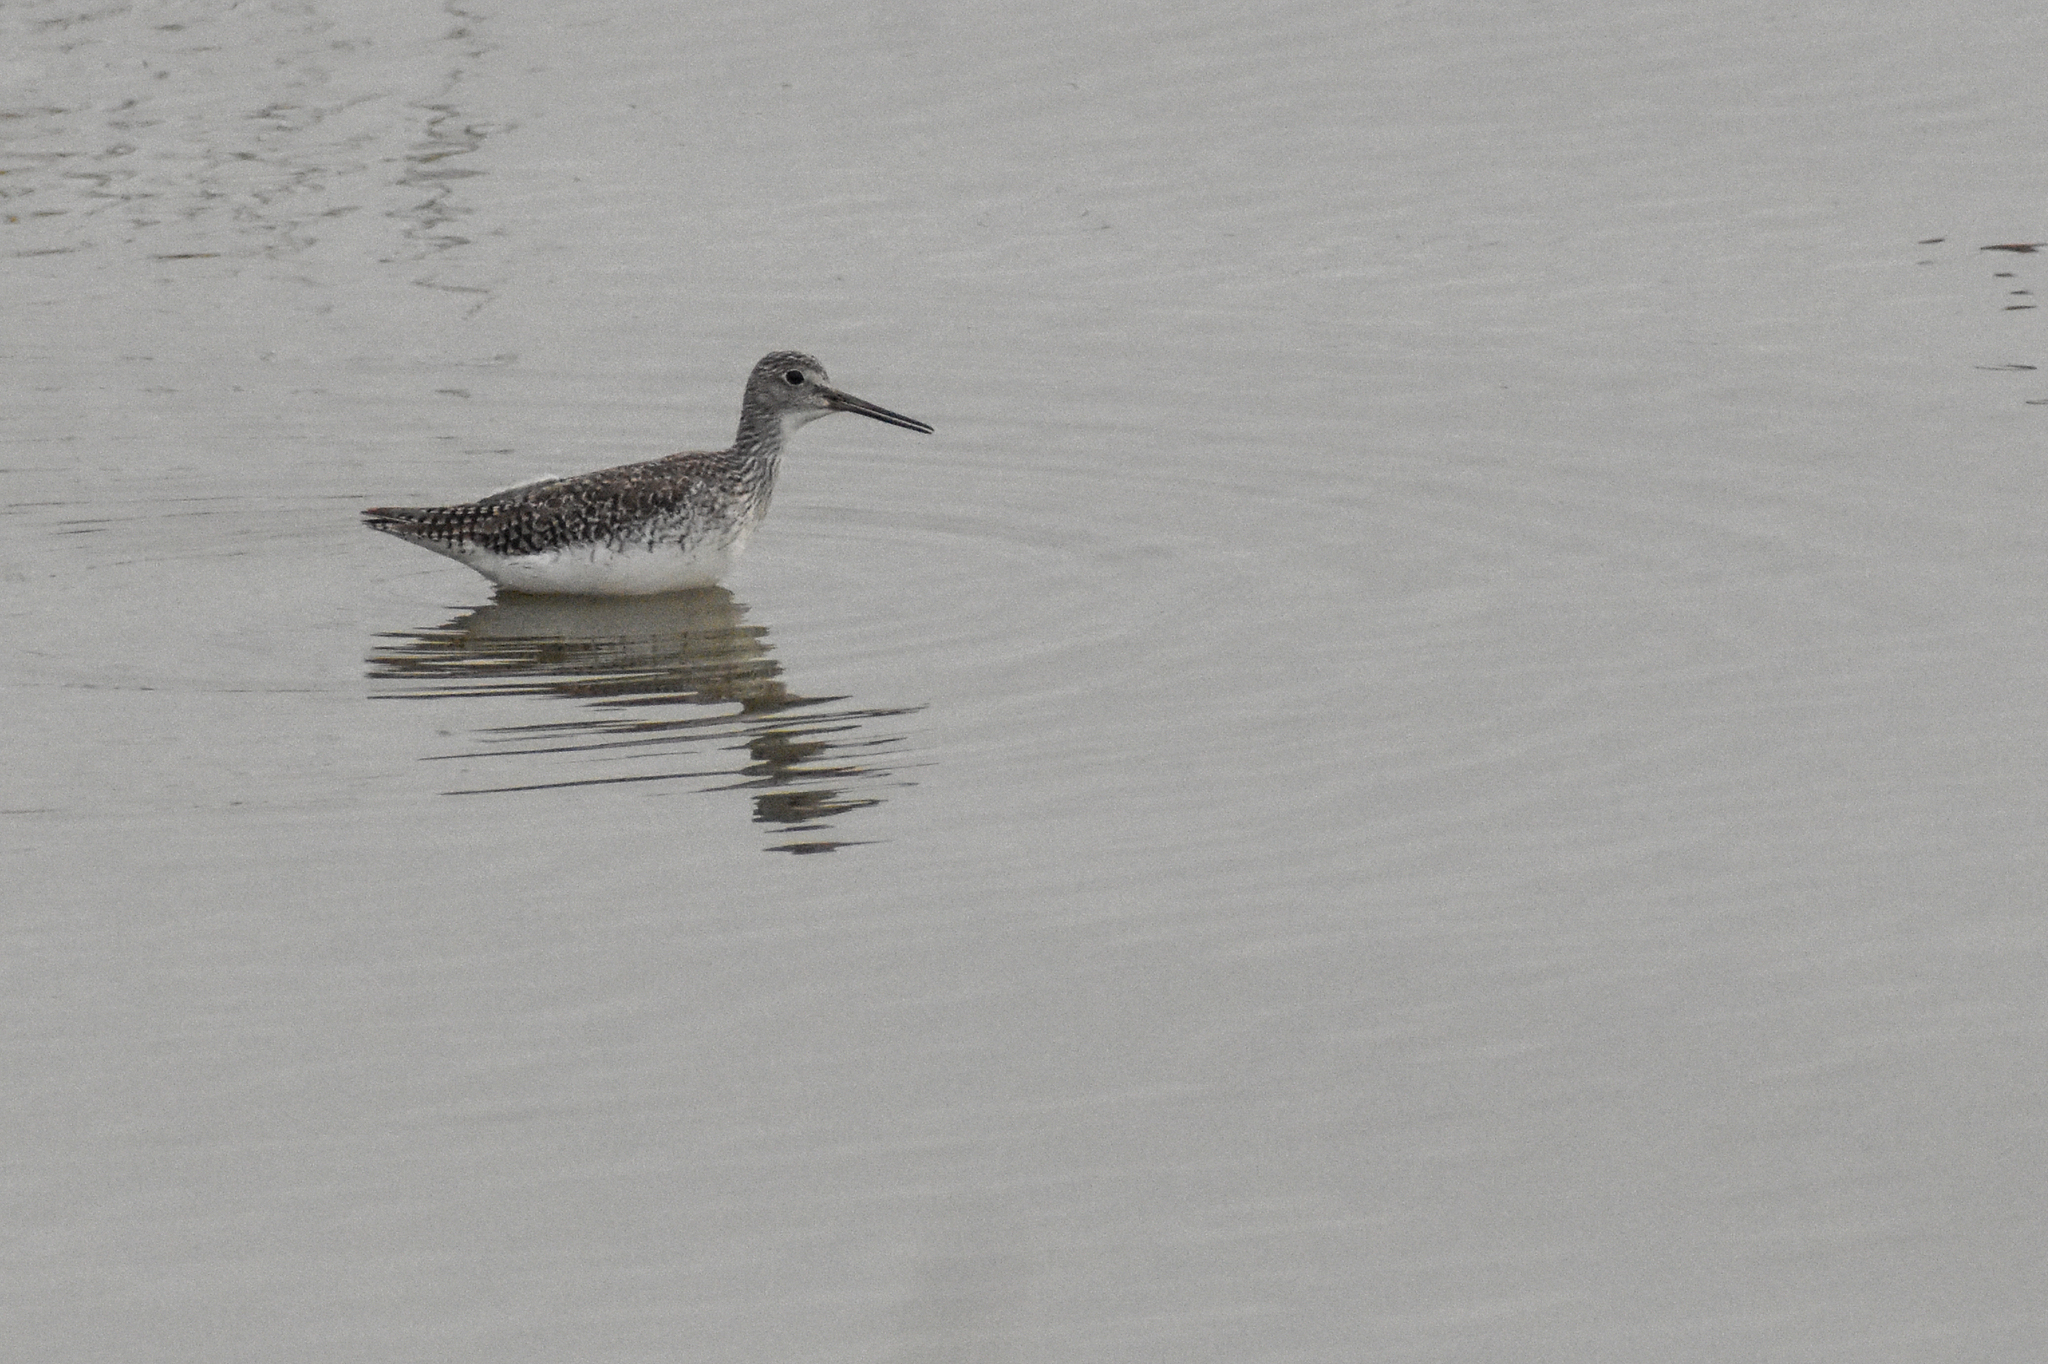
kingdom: Animalia
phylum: Chordata
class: Aves
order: Charadriiformes
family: Scolopacidae
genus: Tringa
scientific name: Tringa melanoleuca
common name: Greater yellowlegs
